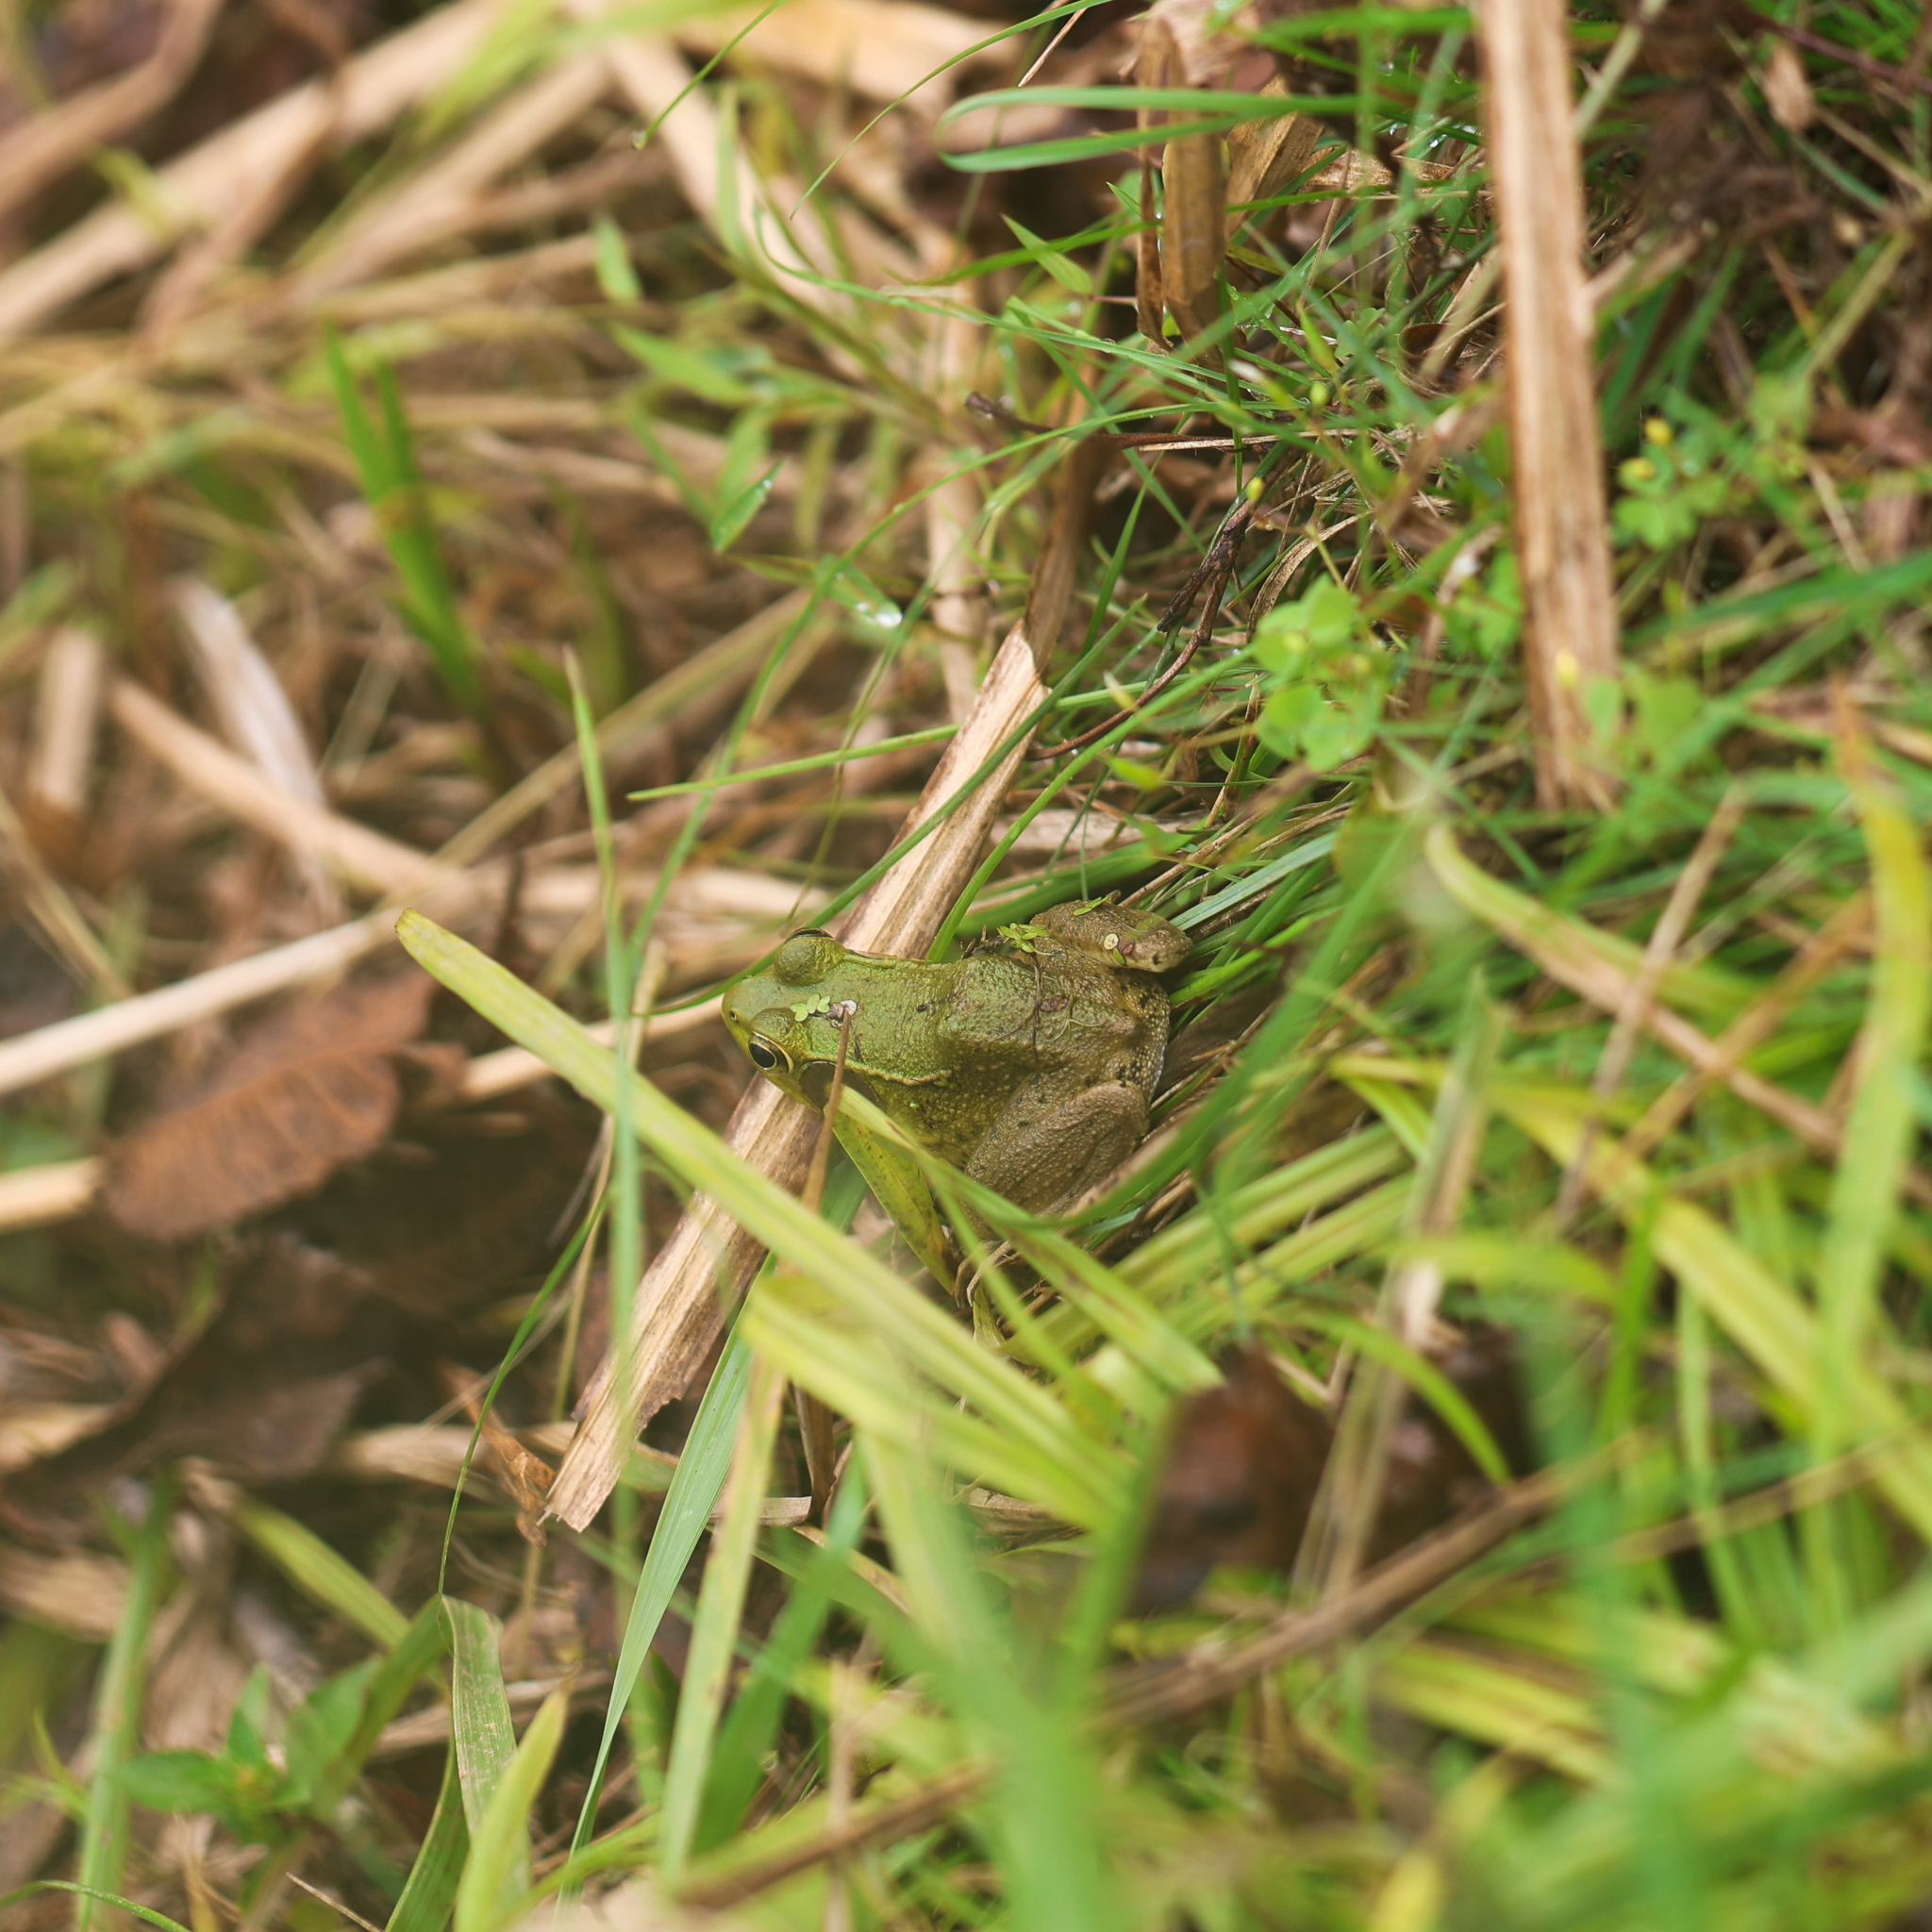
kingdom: Animalia
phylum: Chordata
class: Amphibia
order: Anura
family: Ranidae
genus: Lithobates
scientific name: Lithobates clamitans
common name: Green frog
